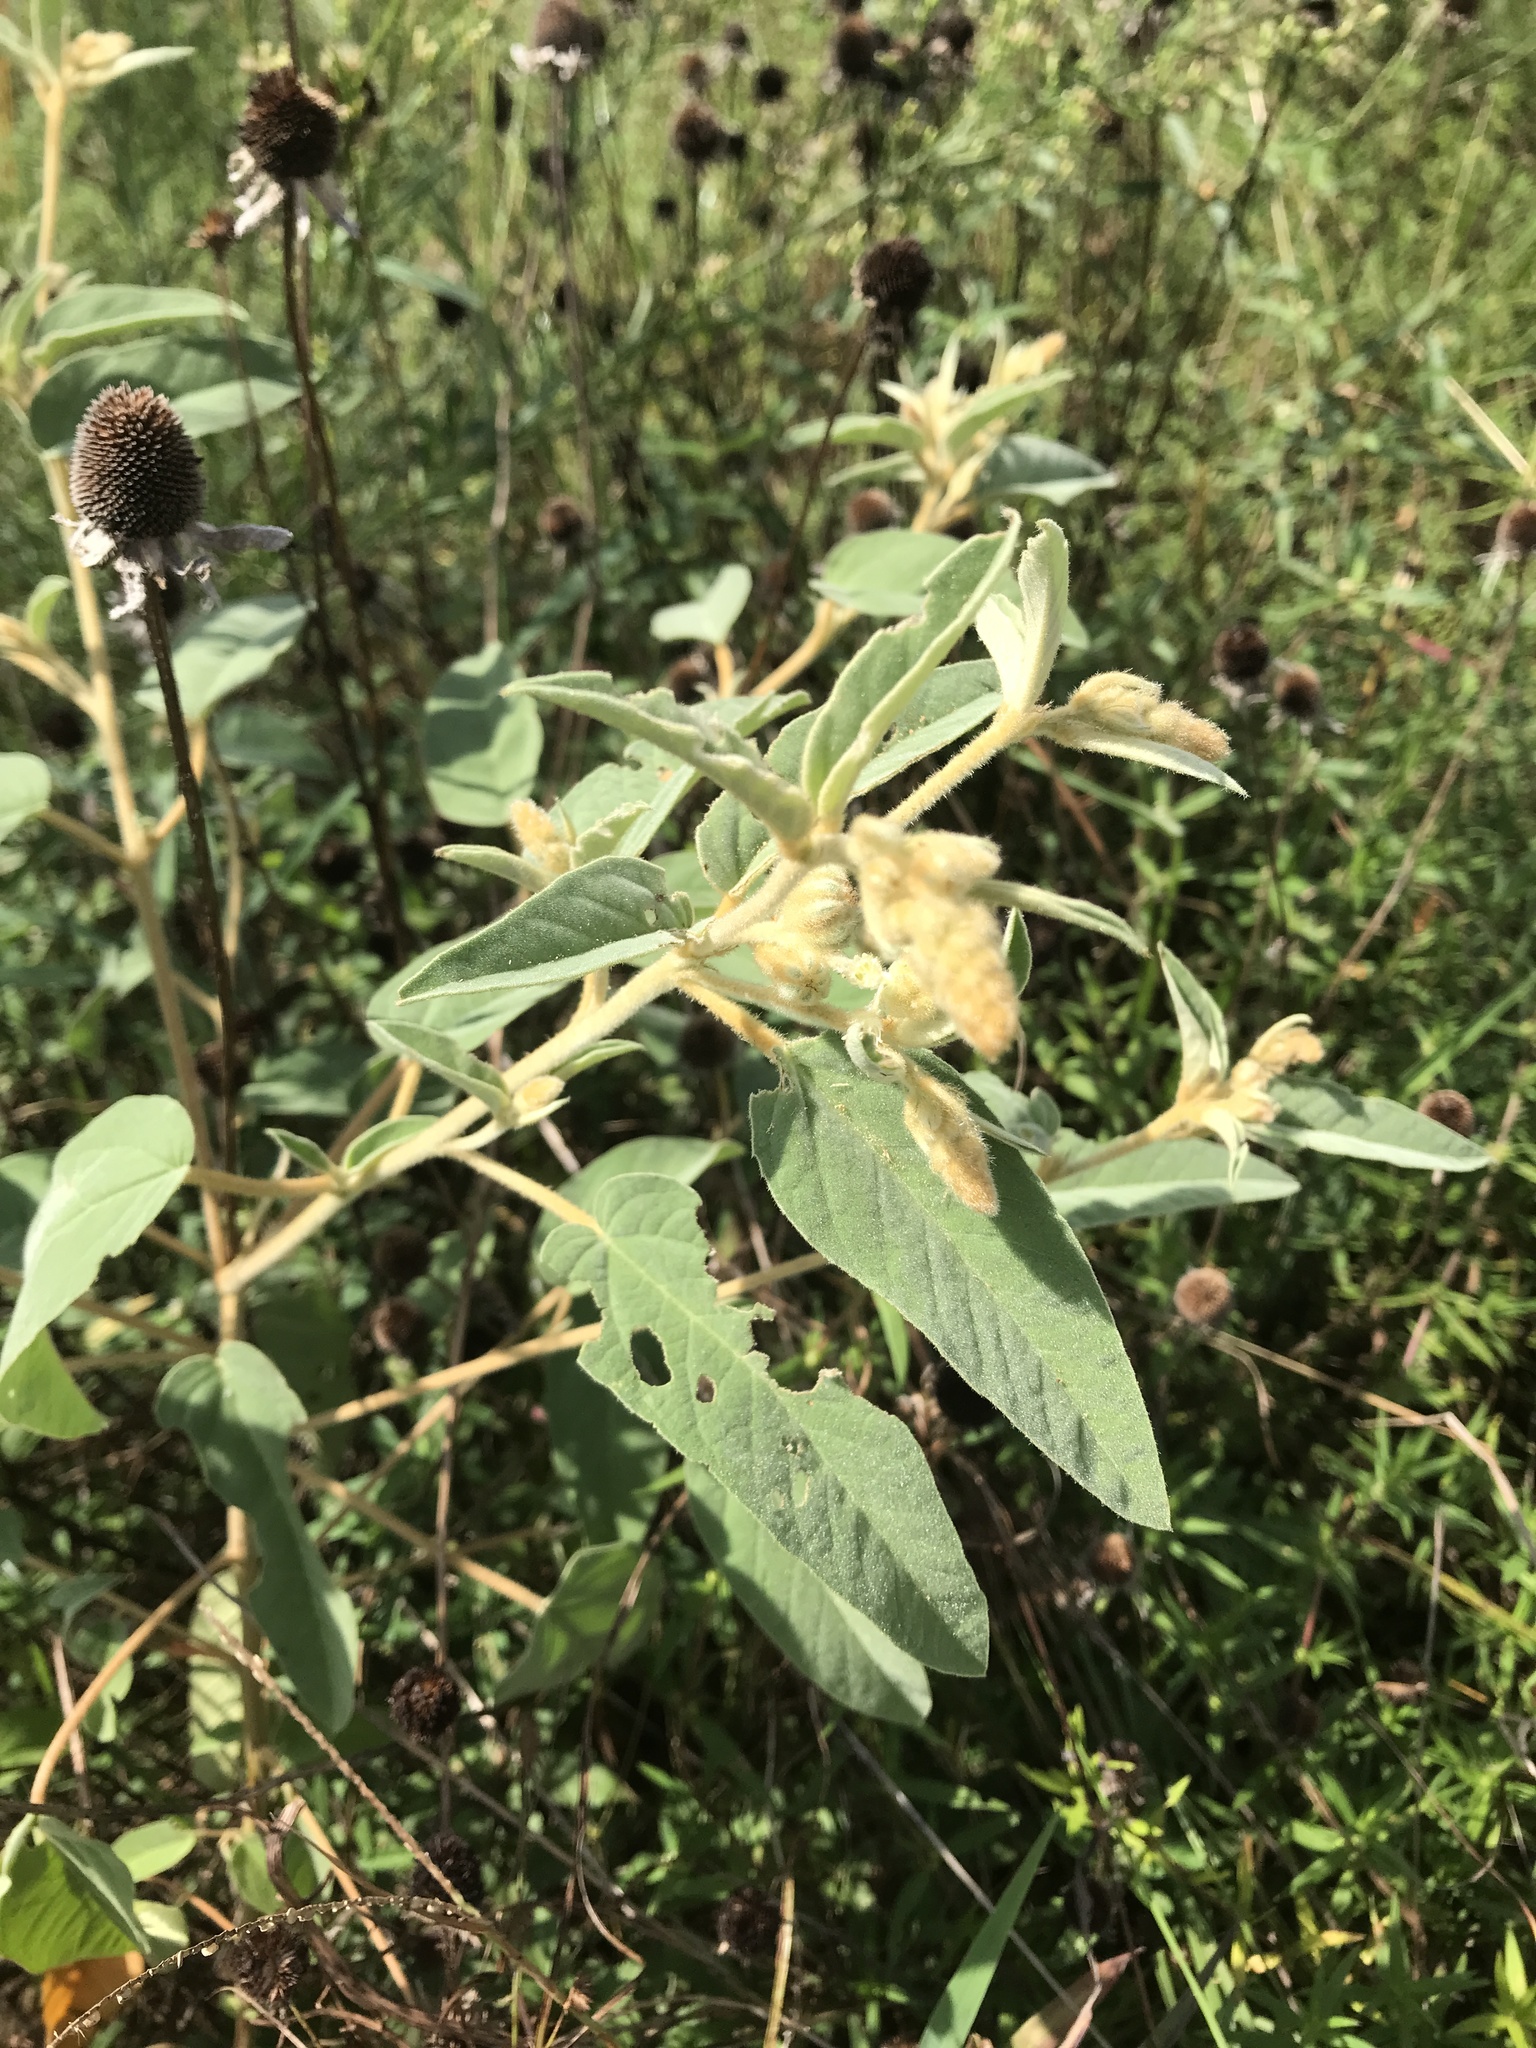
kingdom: Plantae
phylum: Tracheophyta
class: Magnoliopsida
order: Malpighiales
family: Euphorbiaceae
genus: Croton
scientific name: Croton lindheimeri
